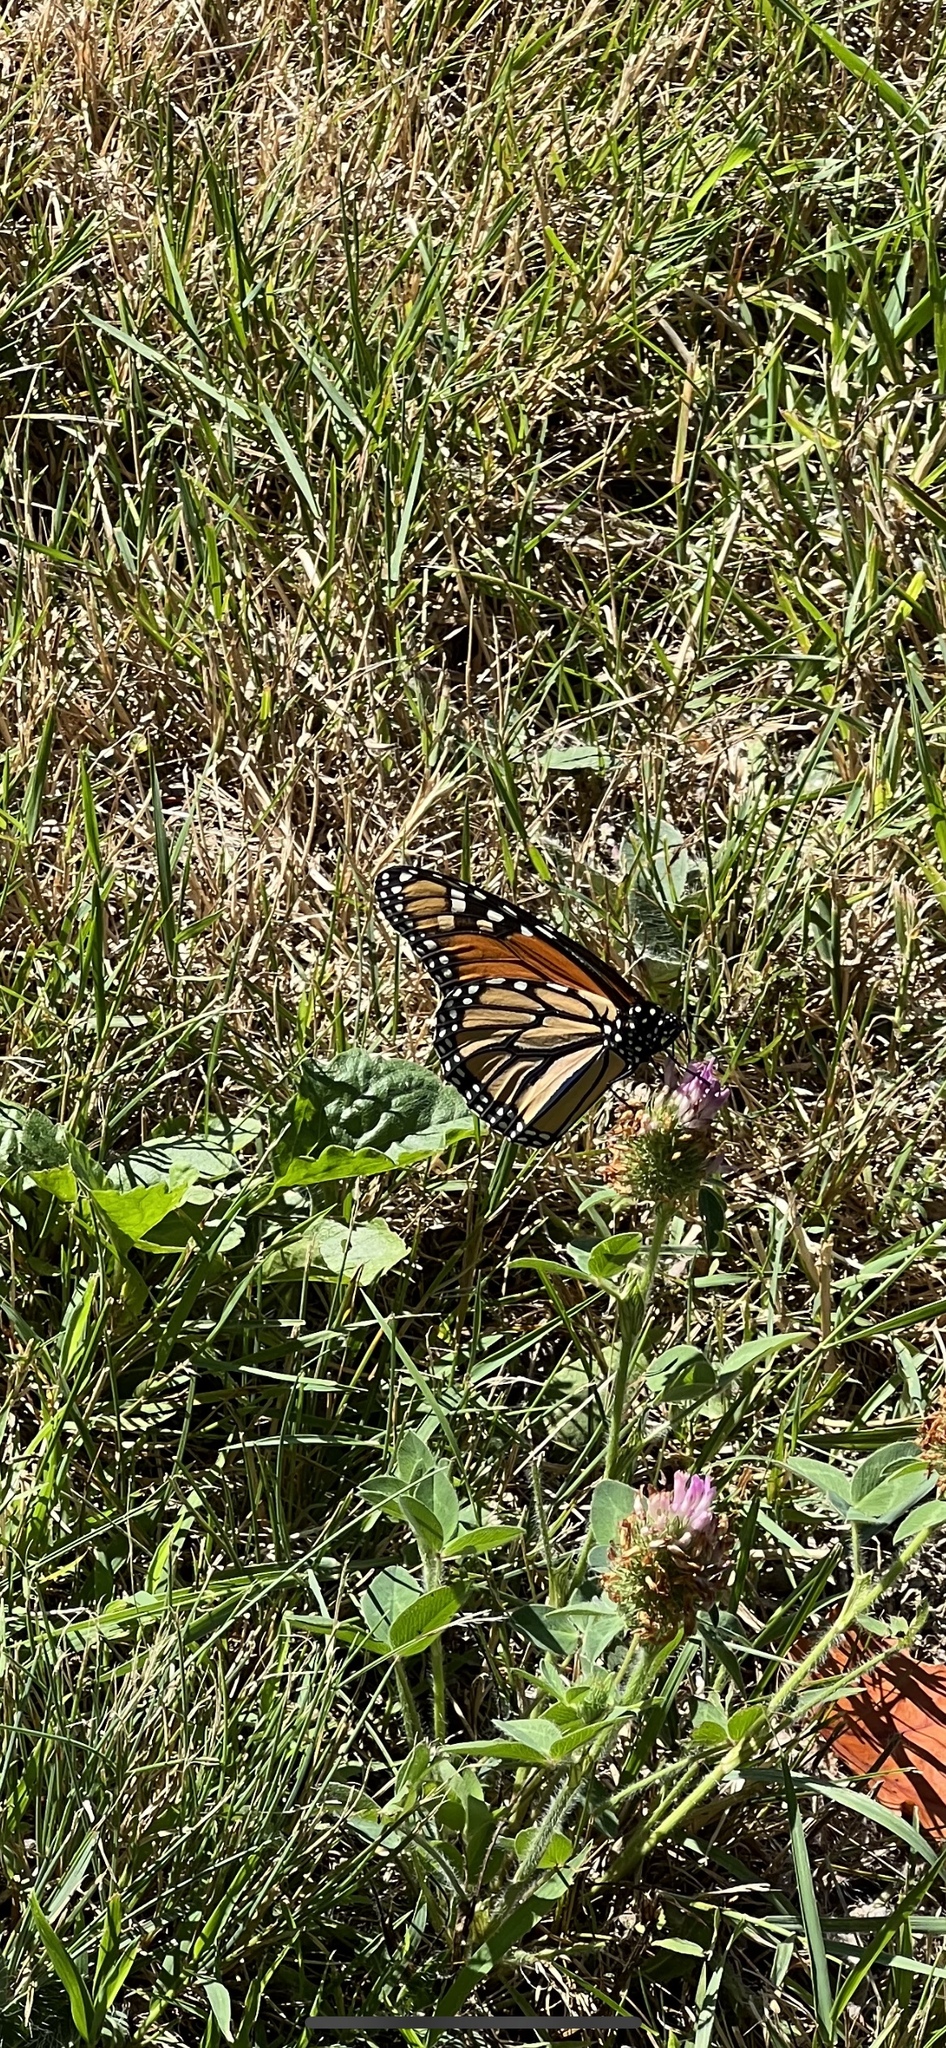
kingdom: Animalia
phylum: Arthropoda
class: Insecta
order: Lepidoptera
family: Nymphalidae
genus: Danaus
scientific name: Danaus plexippus
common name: Monarch
